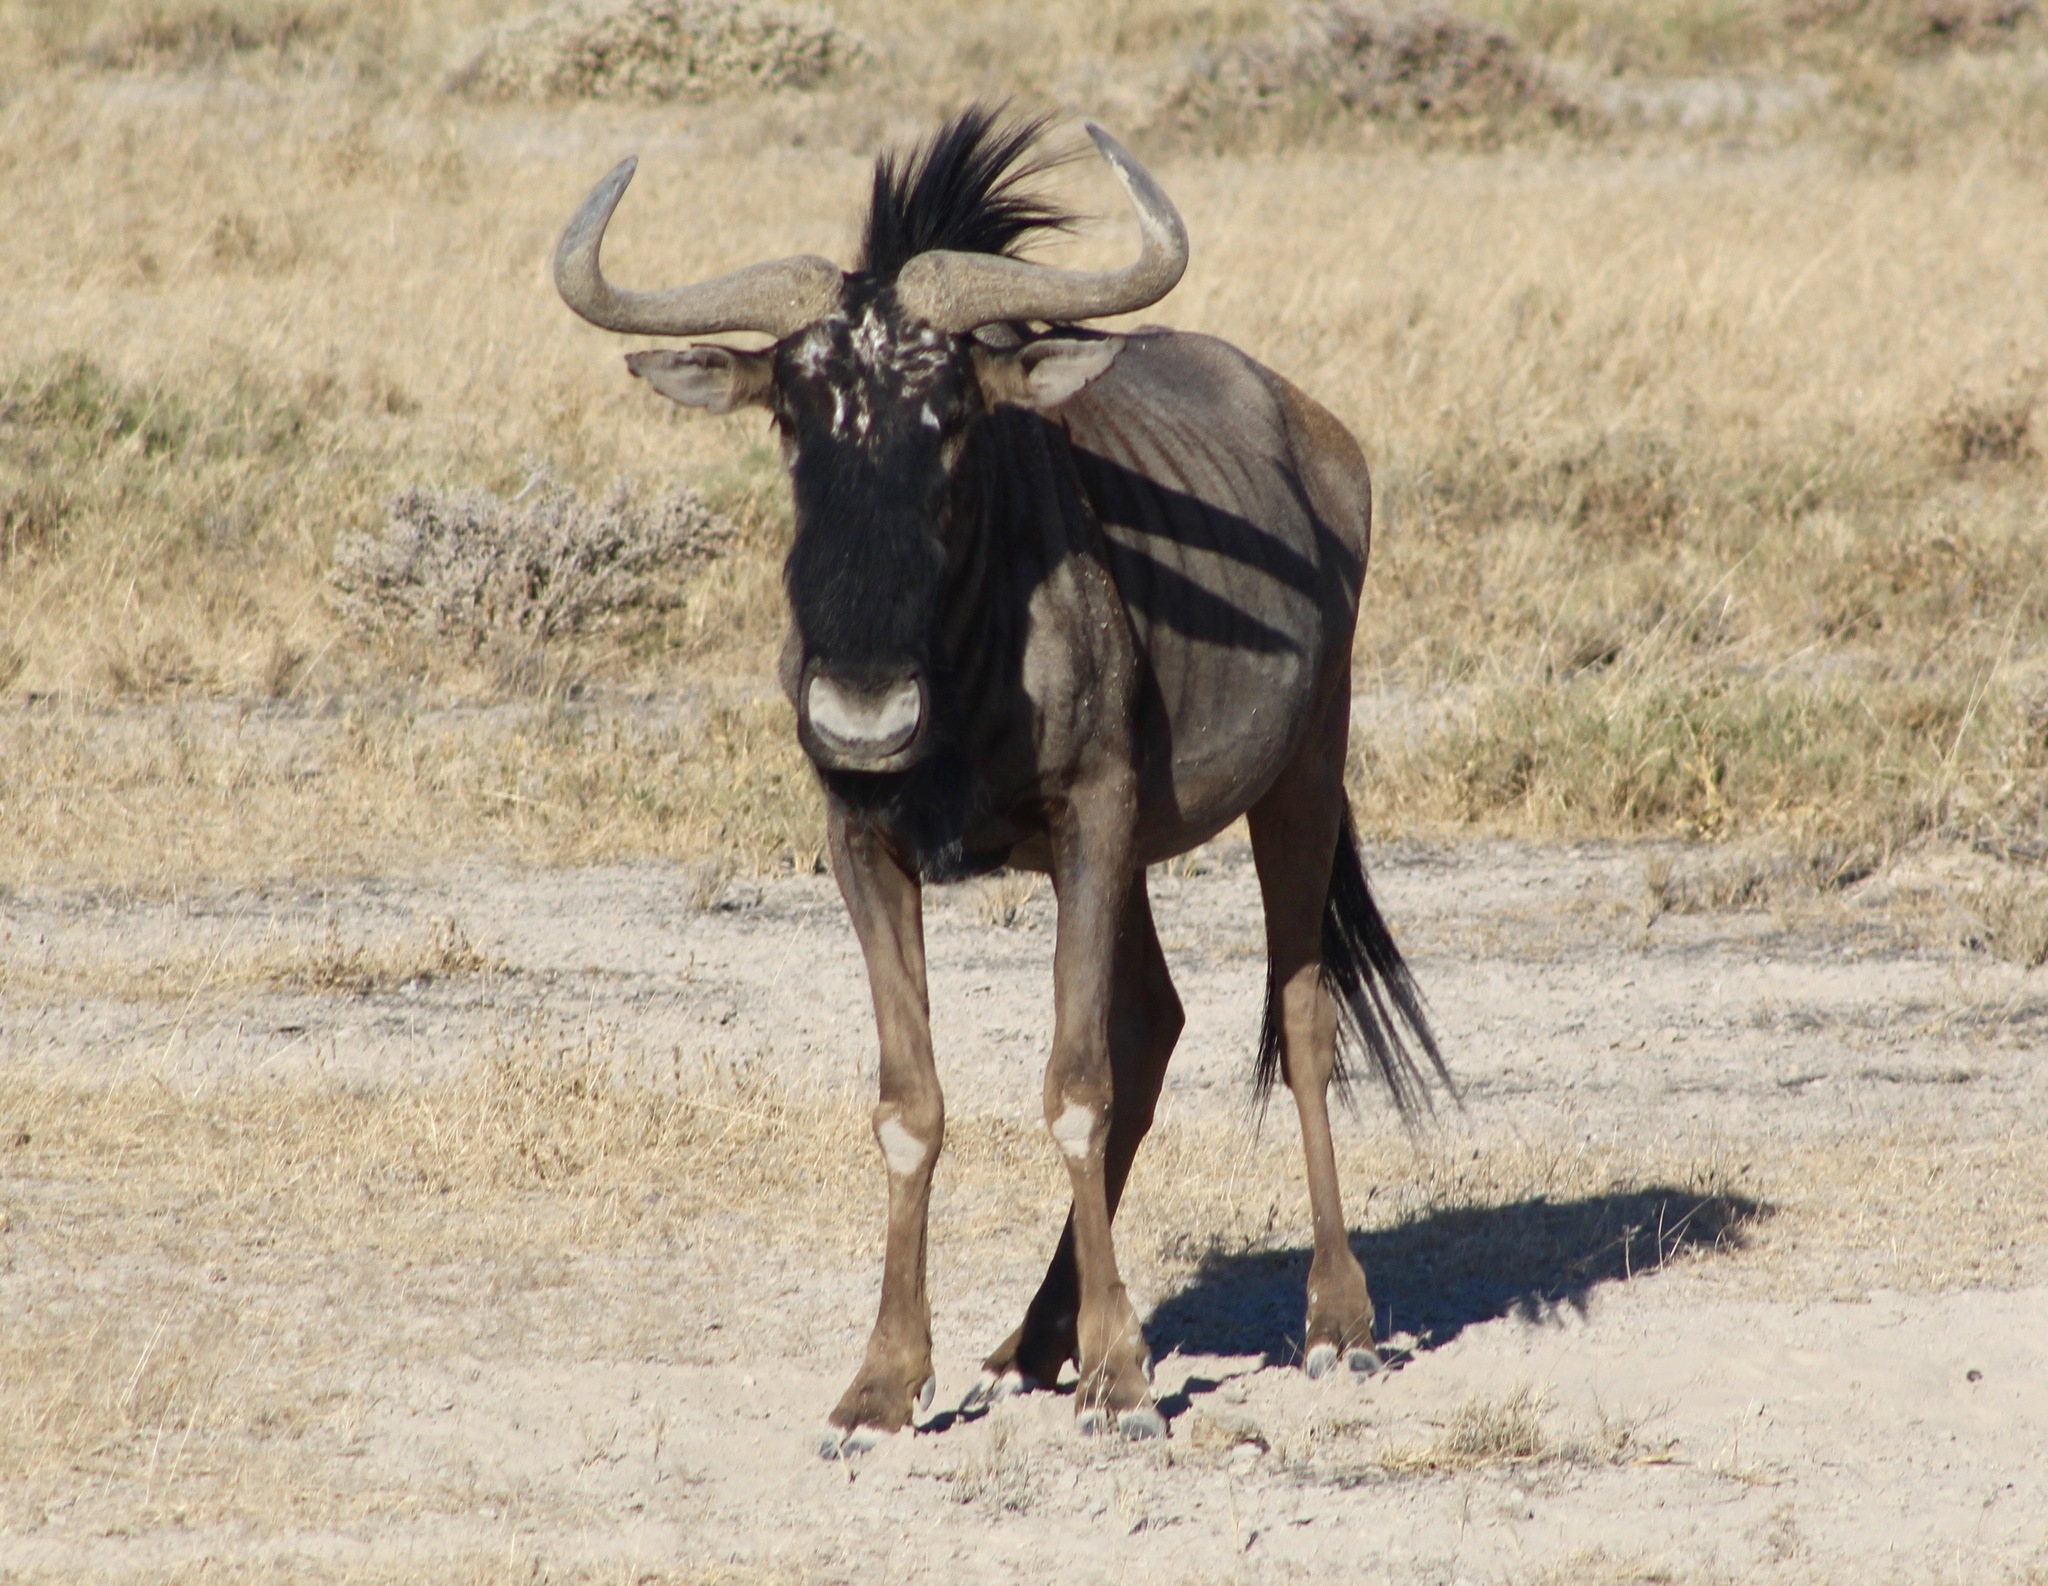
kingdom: Animalia
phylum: Chordata
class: Mammalia
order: Artiodactyla
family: Bovidae
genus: Connochaetes
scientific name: Connochaetes taurinus
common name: Blue wildebeest
